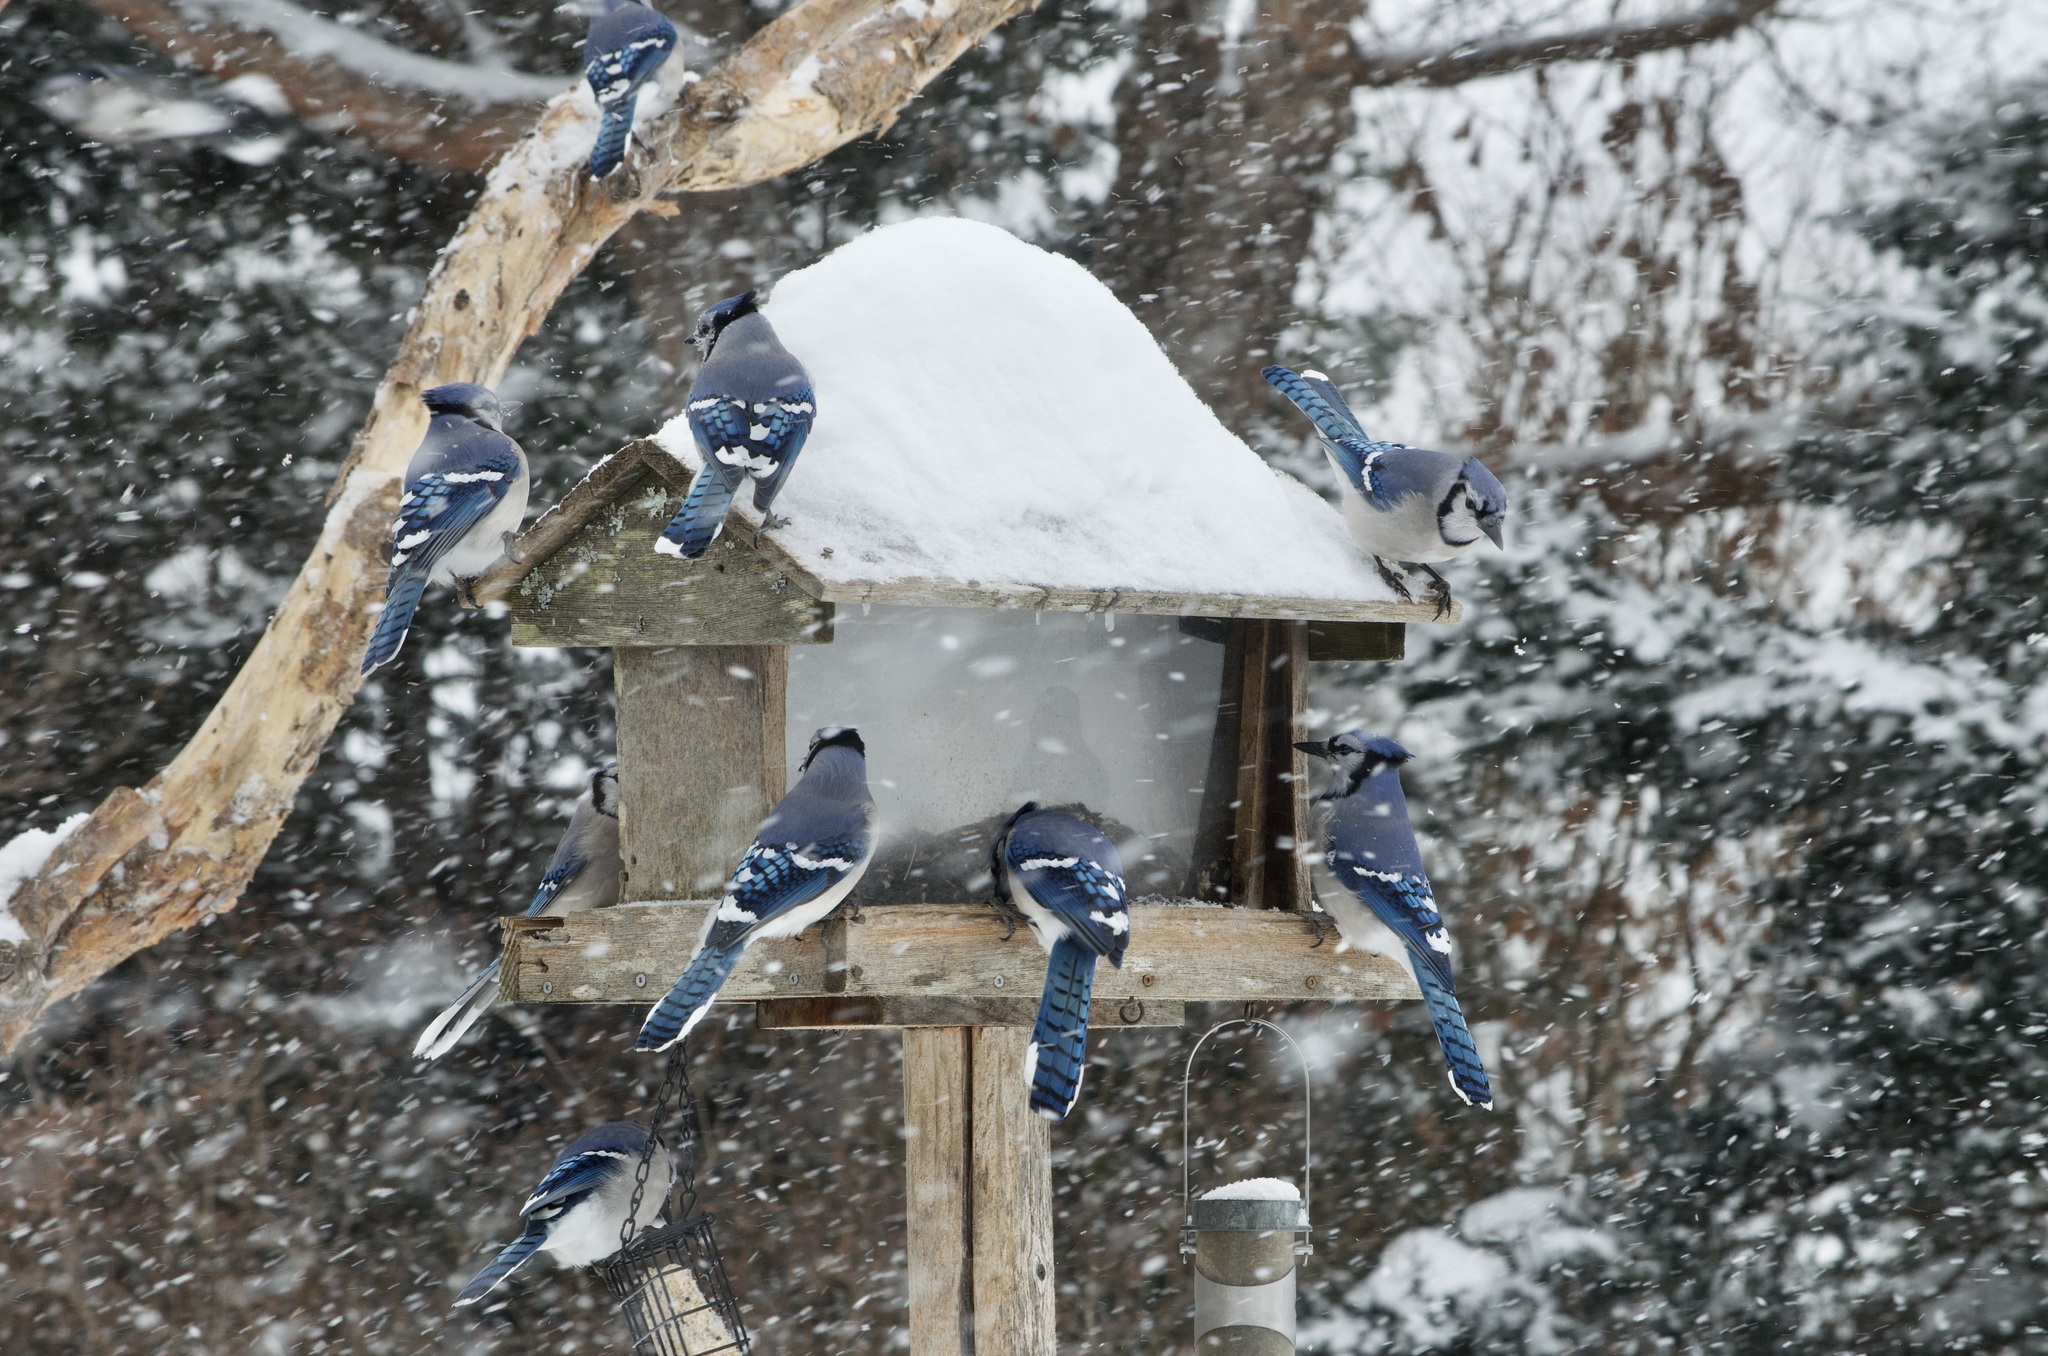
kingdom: Animalia
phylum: Chordata
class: Aves
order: Passeriformes
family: Corvidae
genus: Cyanocitta
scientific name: Cyanocitta cristata
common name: Blue jay
